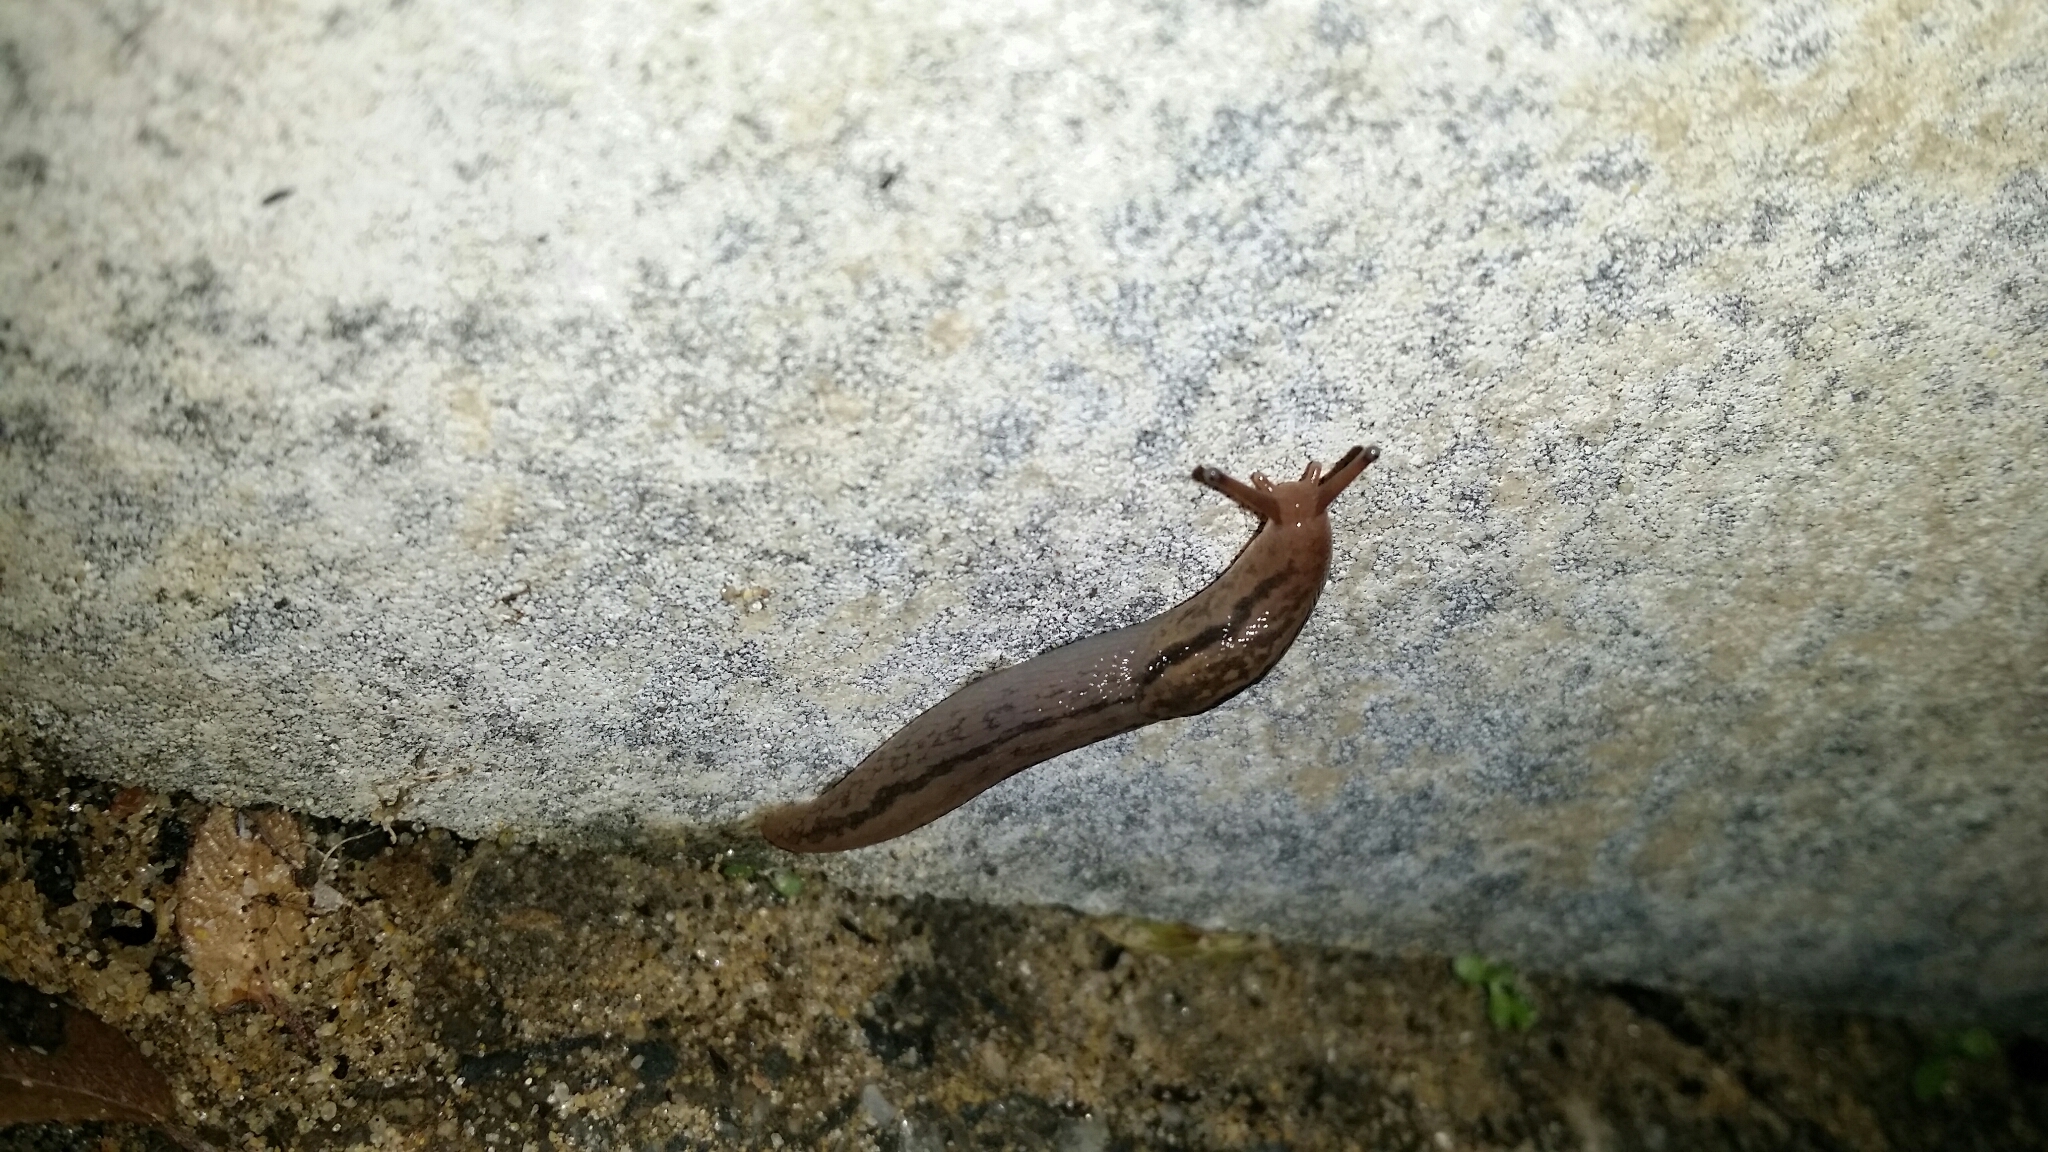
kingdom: Animalia
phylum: Mollusca
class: Gastropoda
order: Stylommatophora
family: Limacidae
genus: Ambigolimax
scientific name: Ambigolimax
